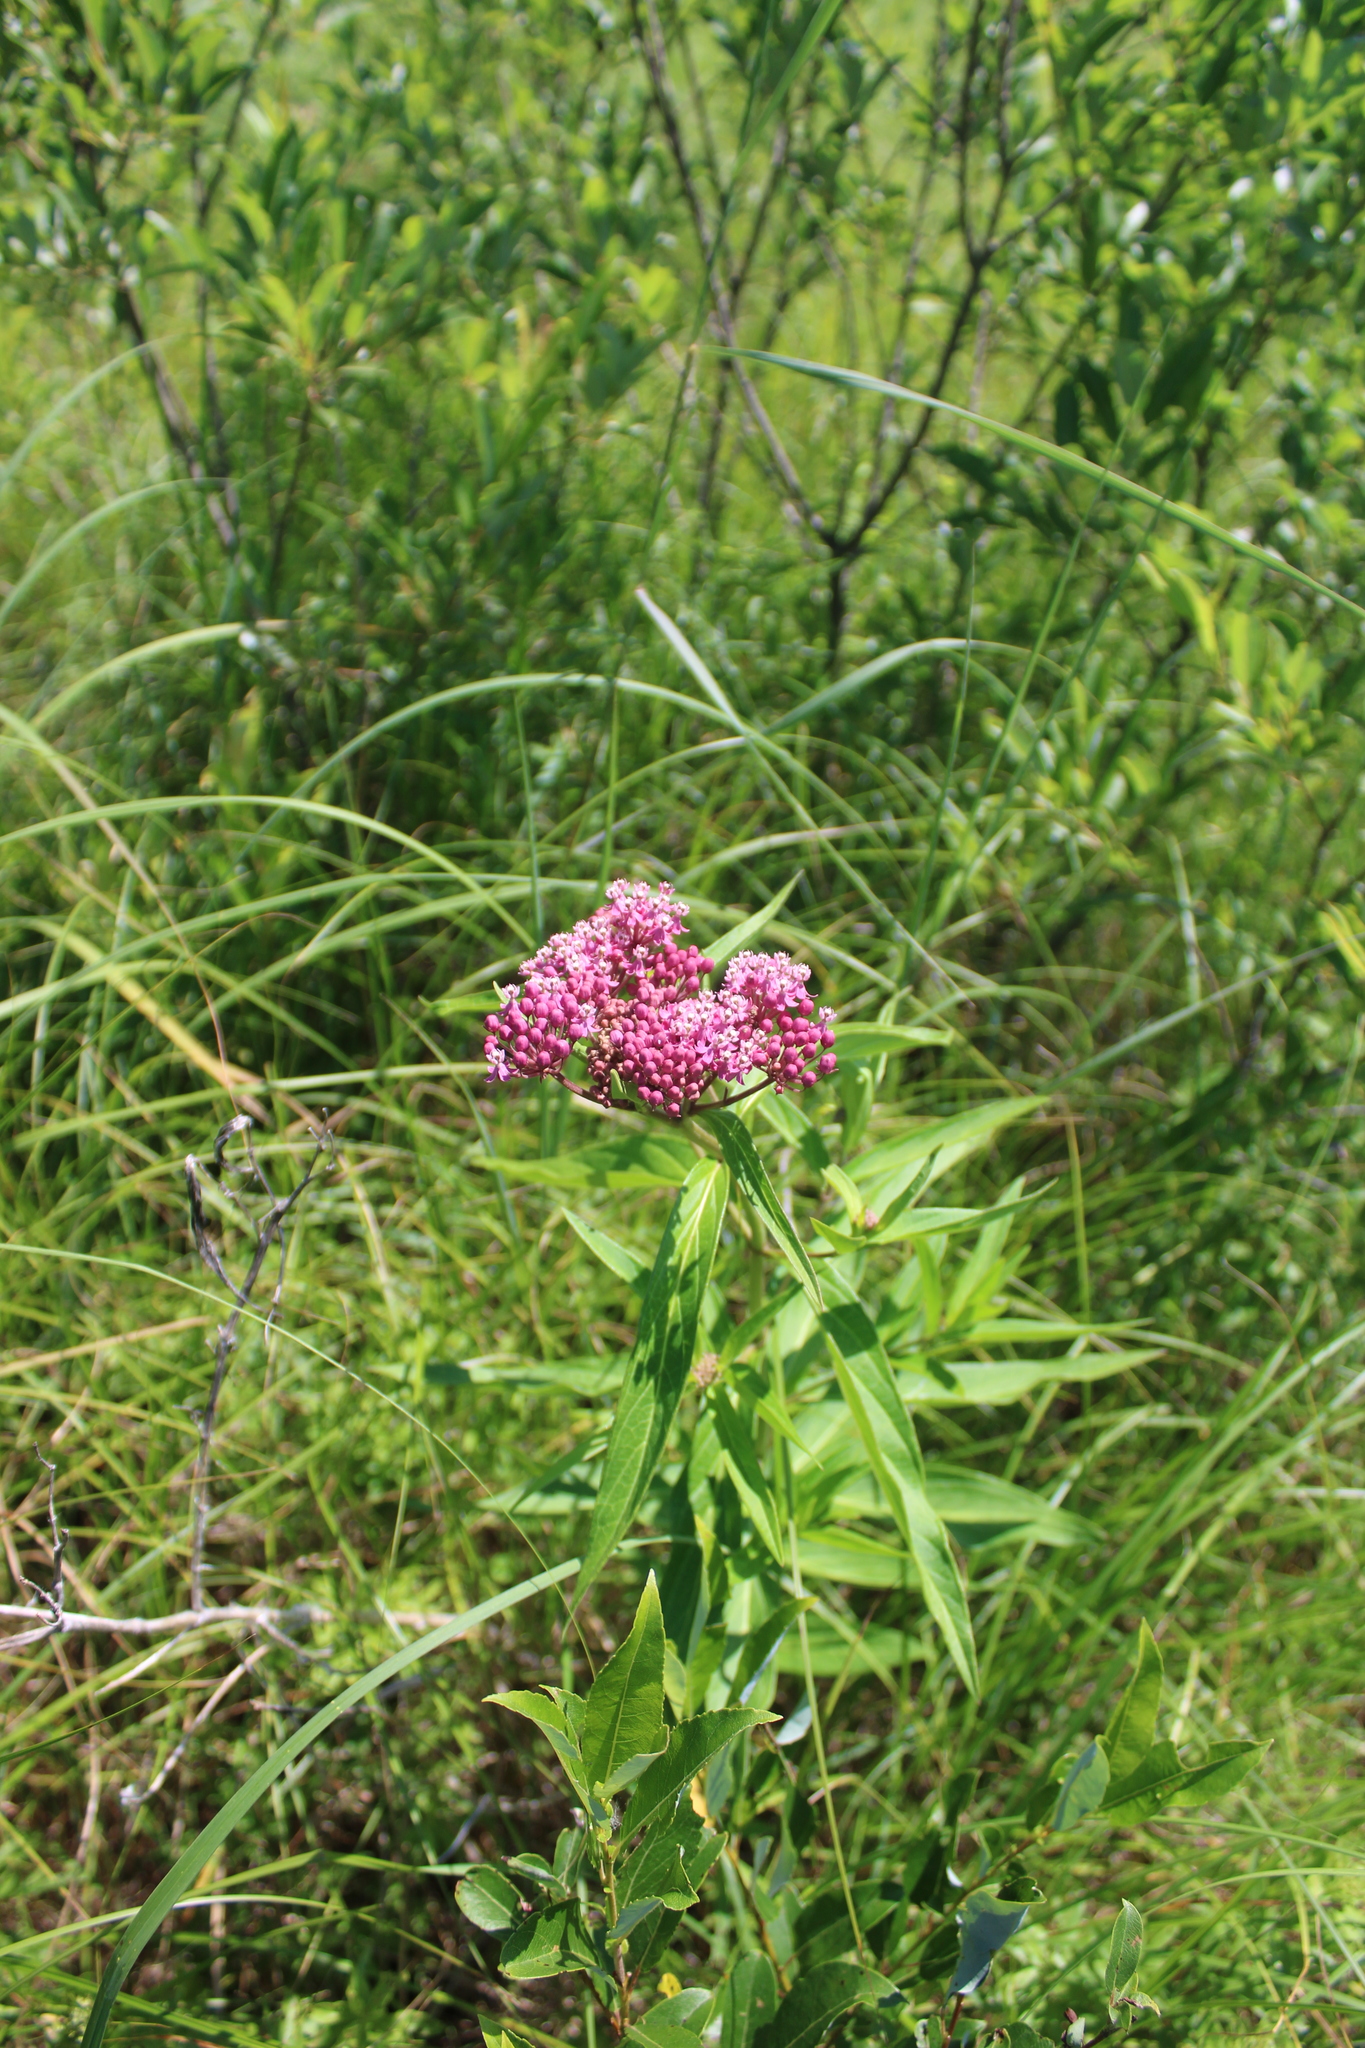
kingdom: Plantae
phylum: Tracheophyta
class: Magnoliopsida
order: Gentianales
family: Apocynaceae
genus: Asclepias
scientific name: Asclepias incarnata
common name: Swamp milkweed
